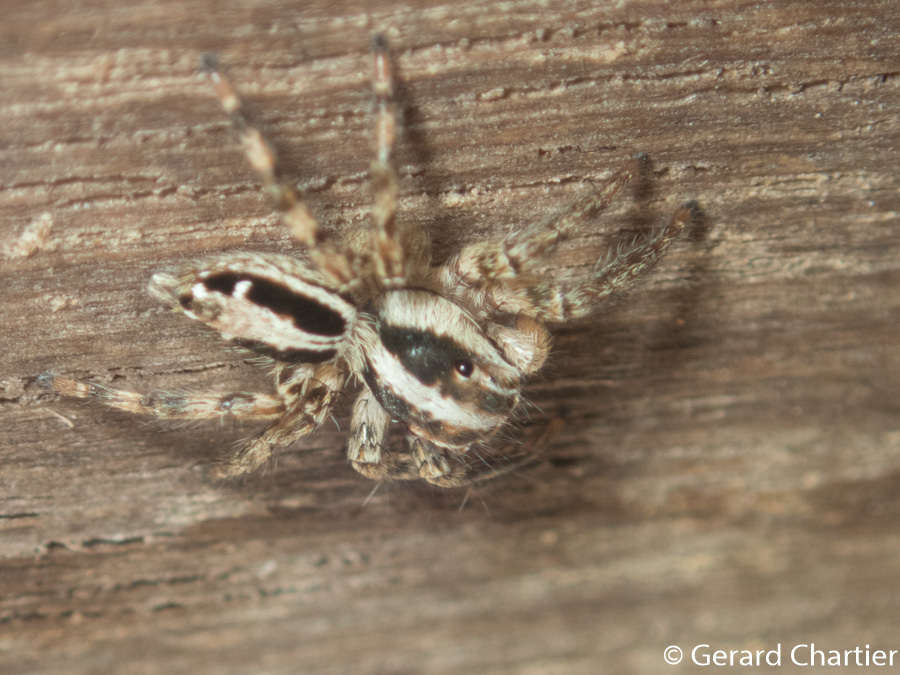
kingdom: Animalia
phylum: Arthropoda
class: Arachnida
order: Araneae
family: Salticidae
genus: Plexippus
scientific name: Plexippus paykulli
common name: Pantropical jumper
